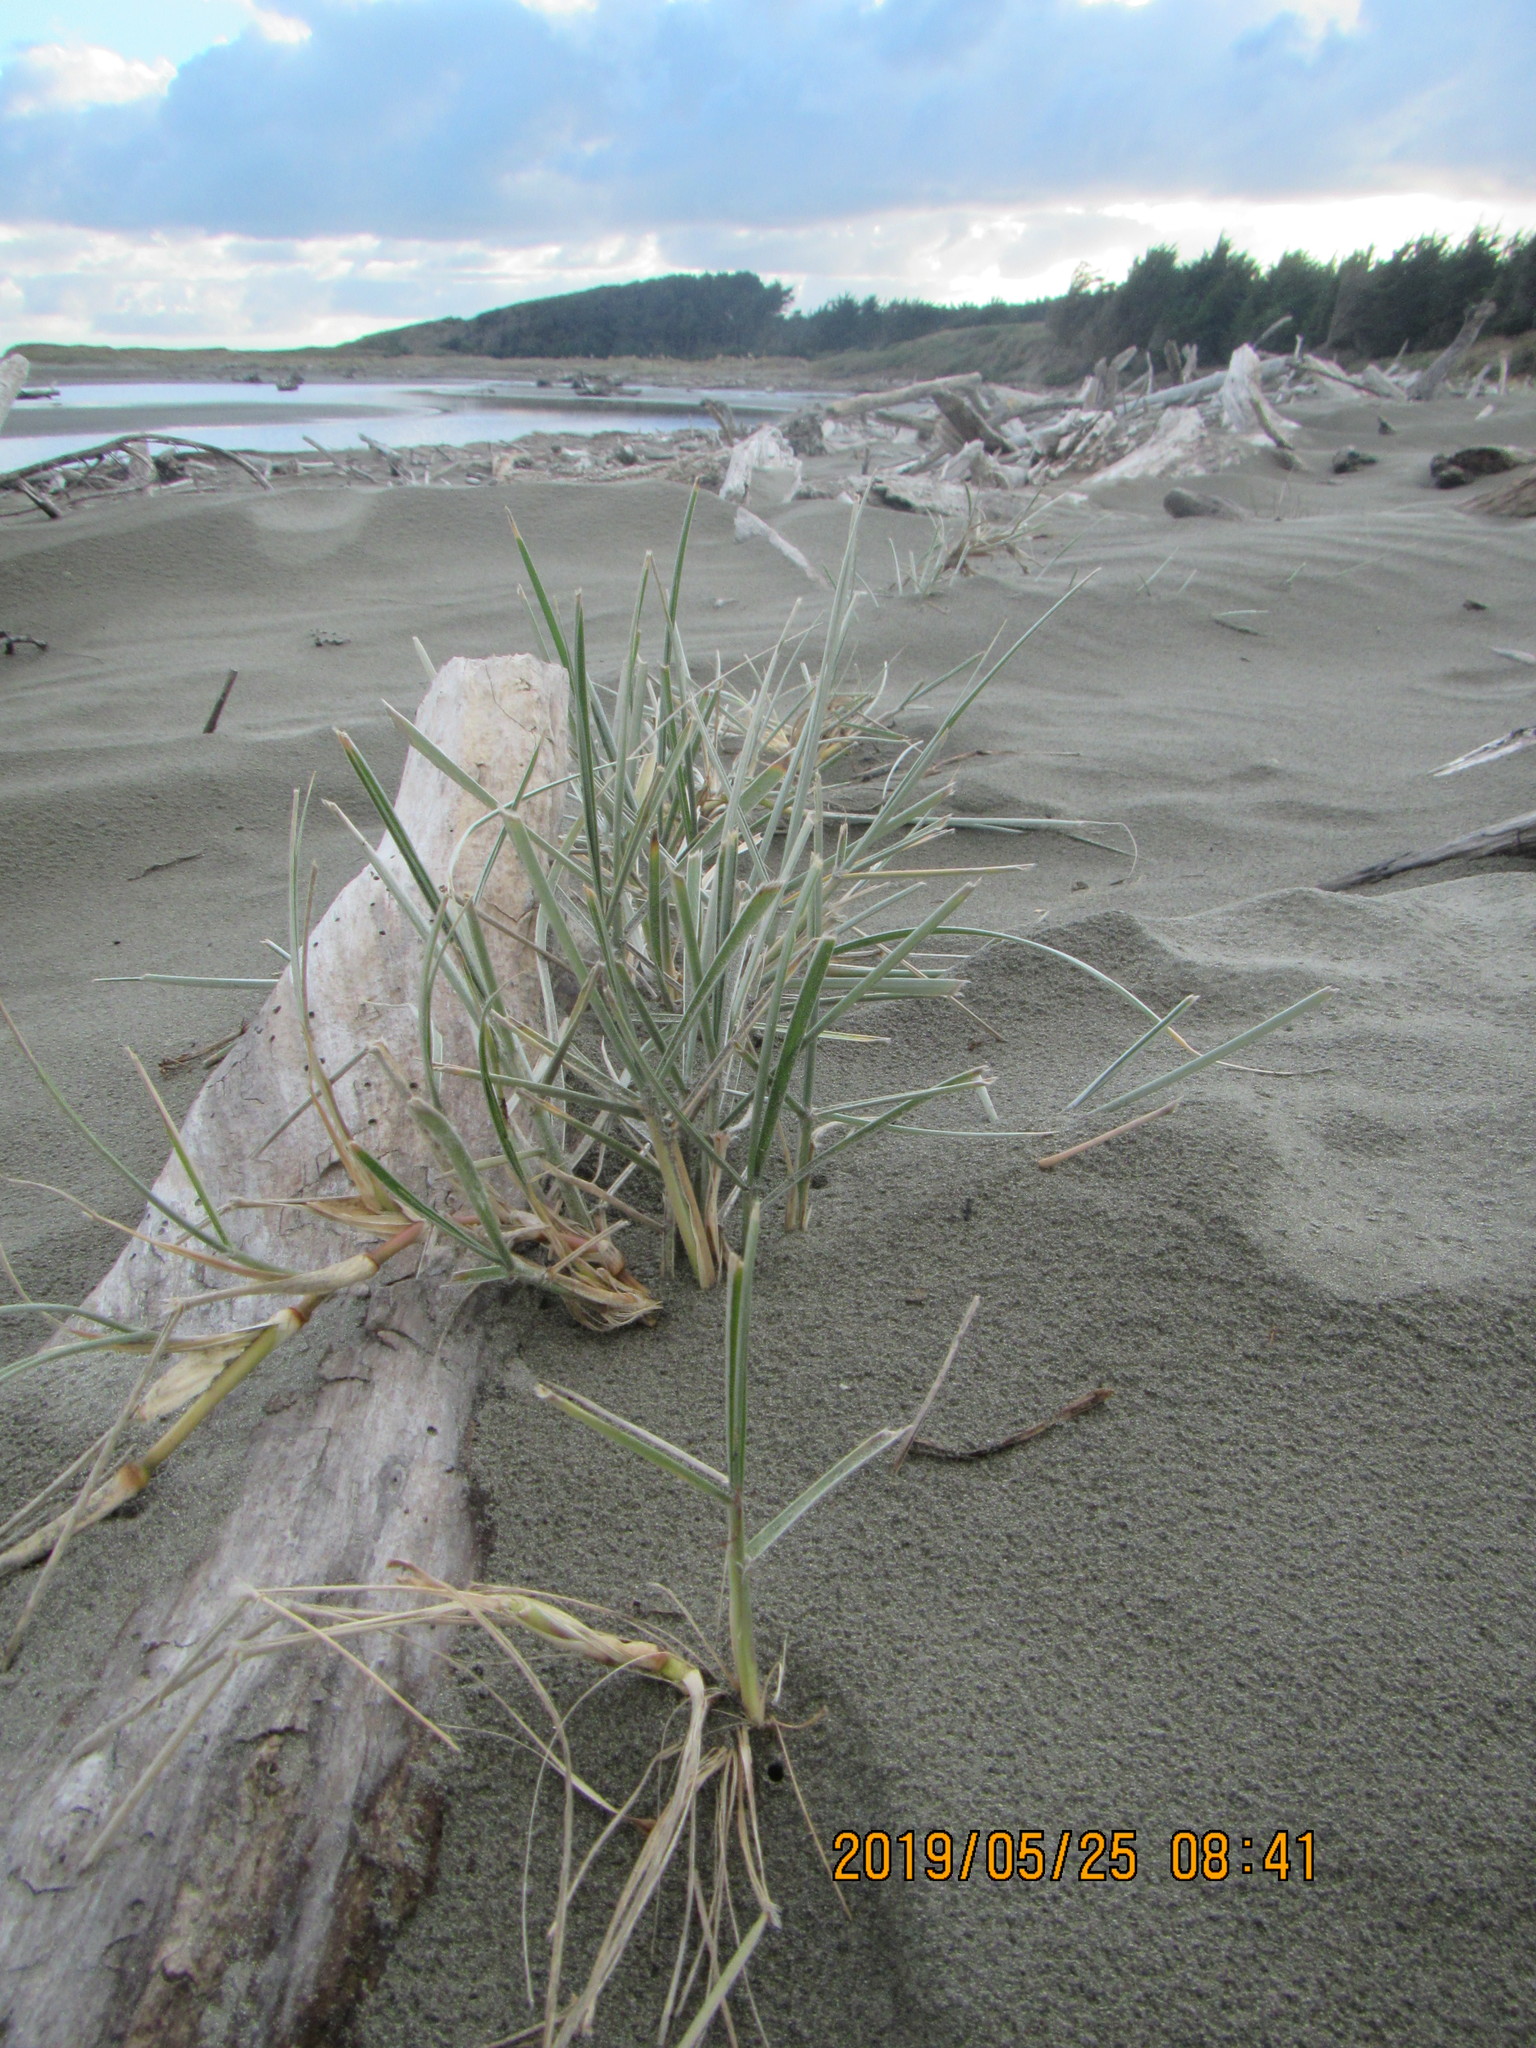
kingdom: Plantae
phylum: Tracheophyta
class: Liliopsida
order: Poales
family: Poaceae
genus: Spinifex
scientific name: Spinifex sericeus
